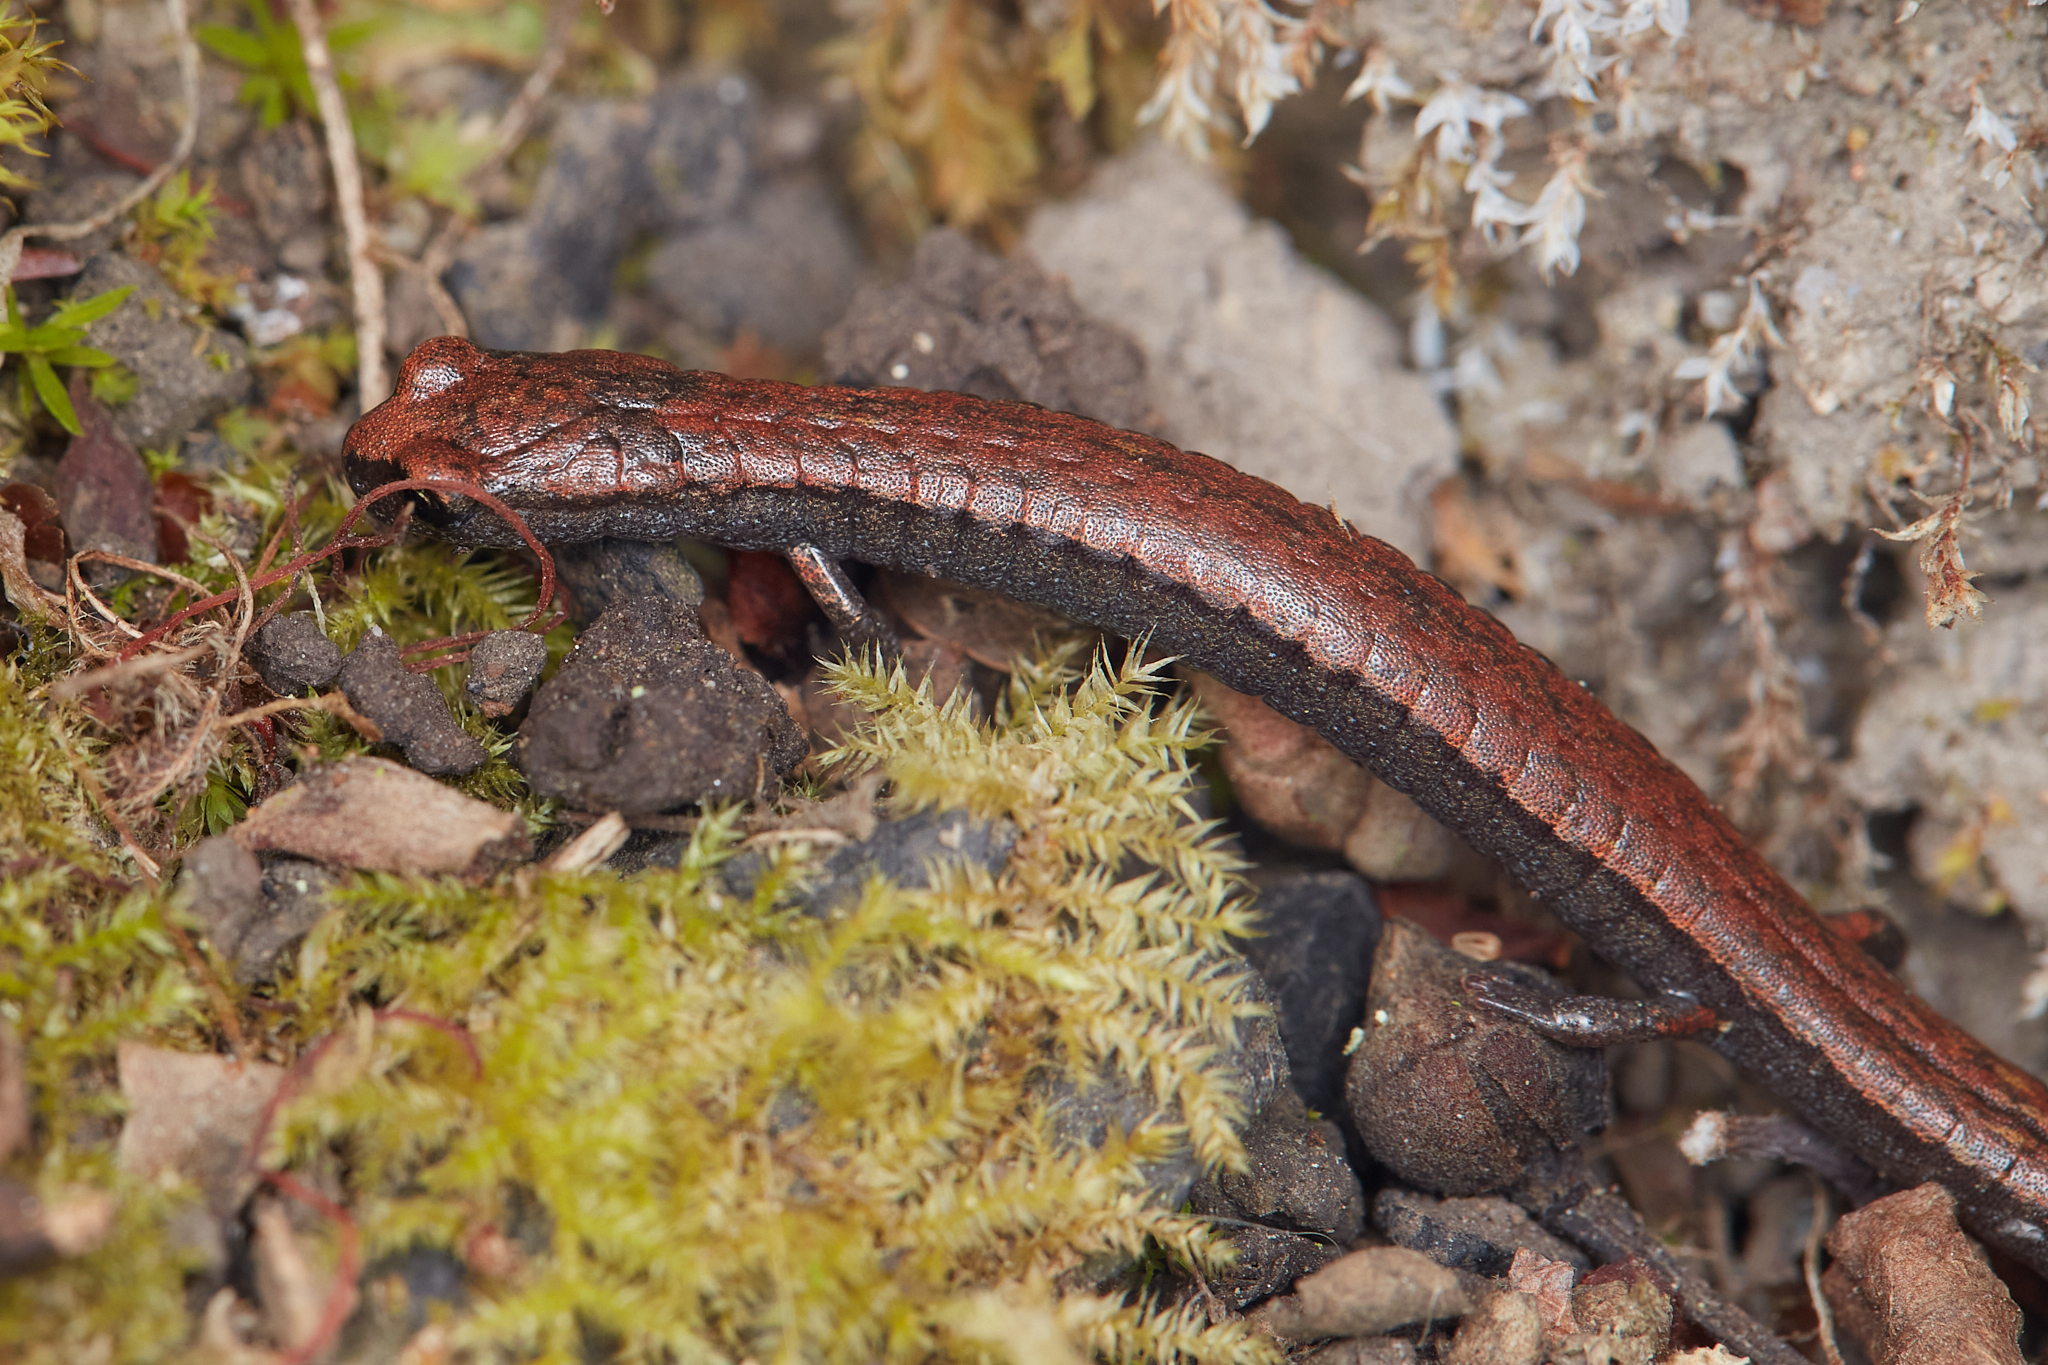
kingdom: Animalia
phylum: Chordata
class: Amphibia
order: Caudata
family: Plethodontidae
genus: Batrachoseps
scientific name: Batrachoseps attenuatus
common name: California slender salamander
